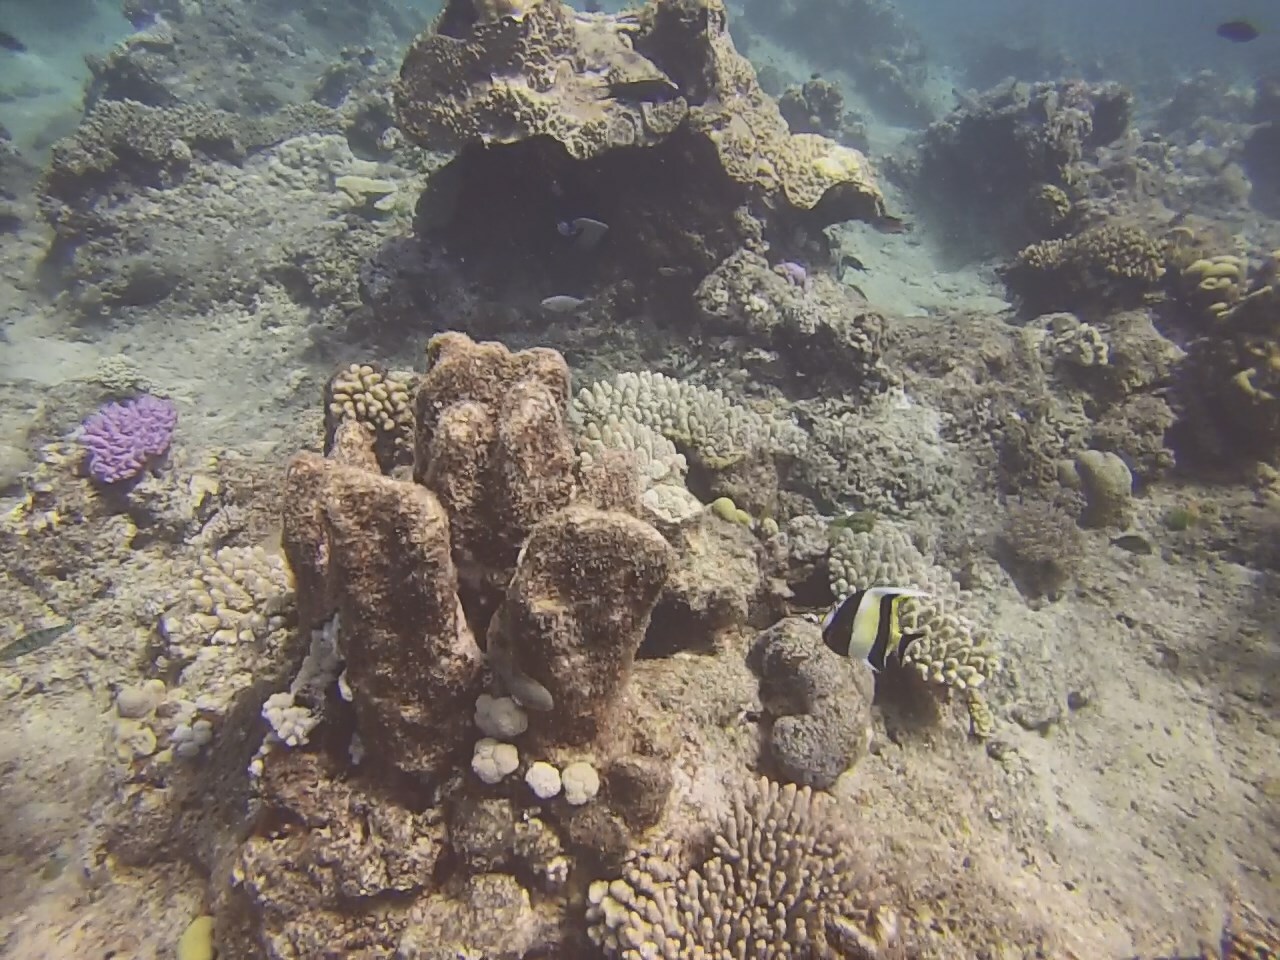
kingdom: Animalia
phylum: Chordata
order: Perciformes
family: Zanclidae
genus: Zanclus
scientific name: Zanclus cornutus
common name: Moorish idol
